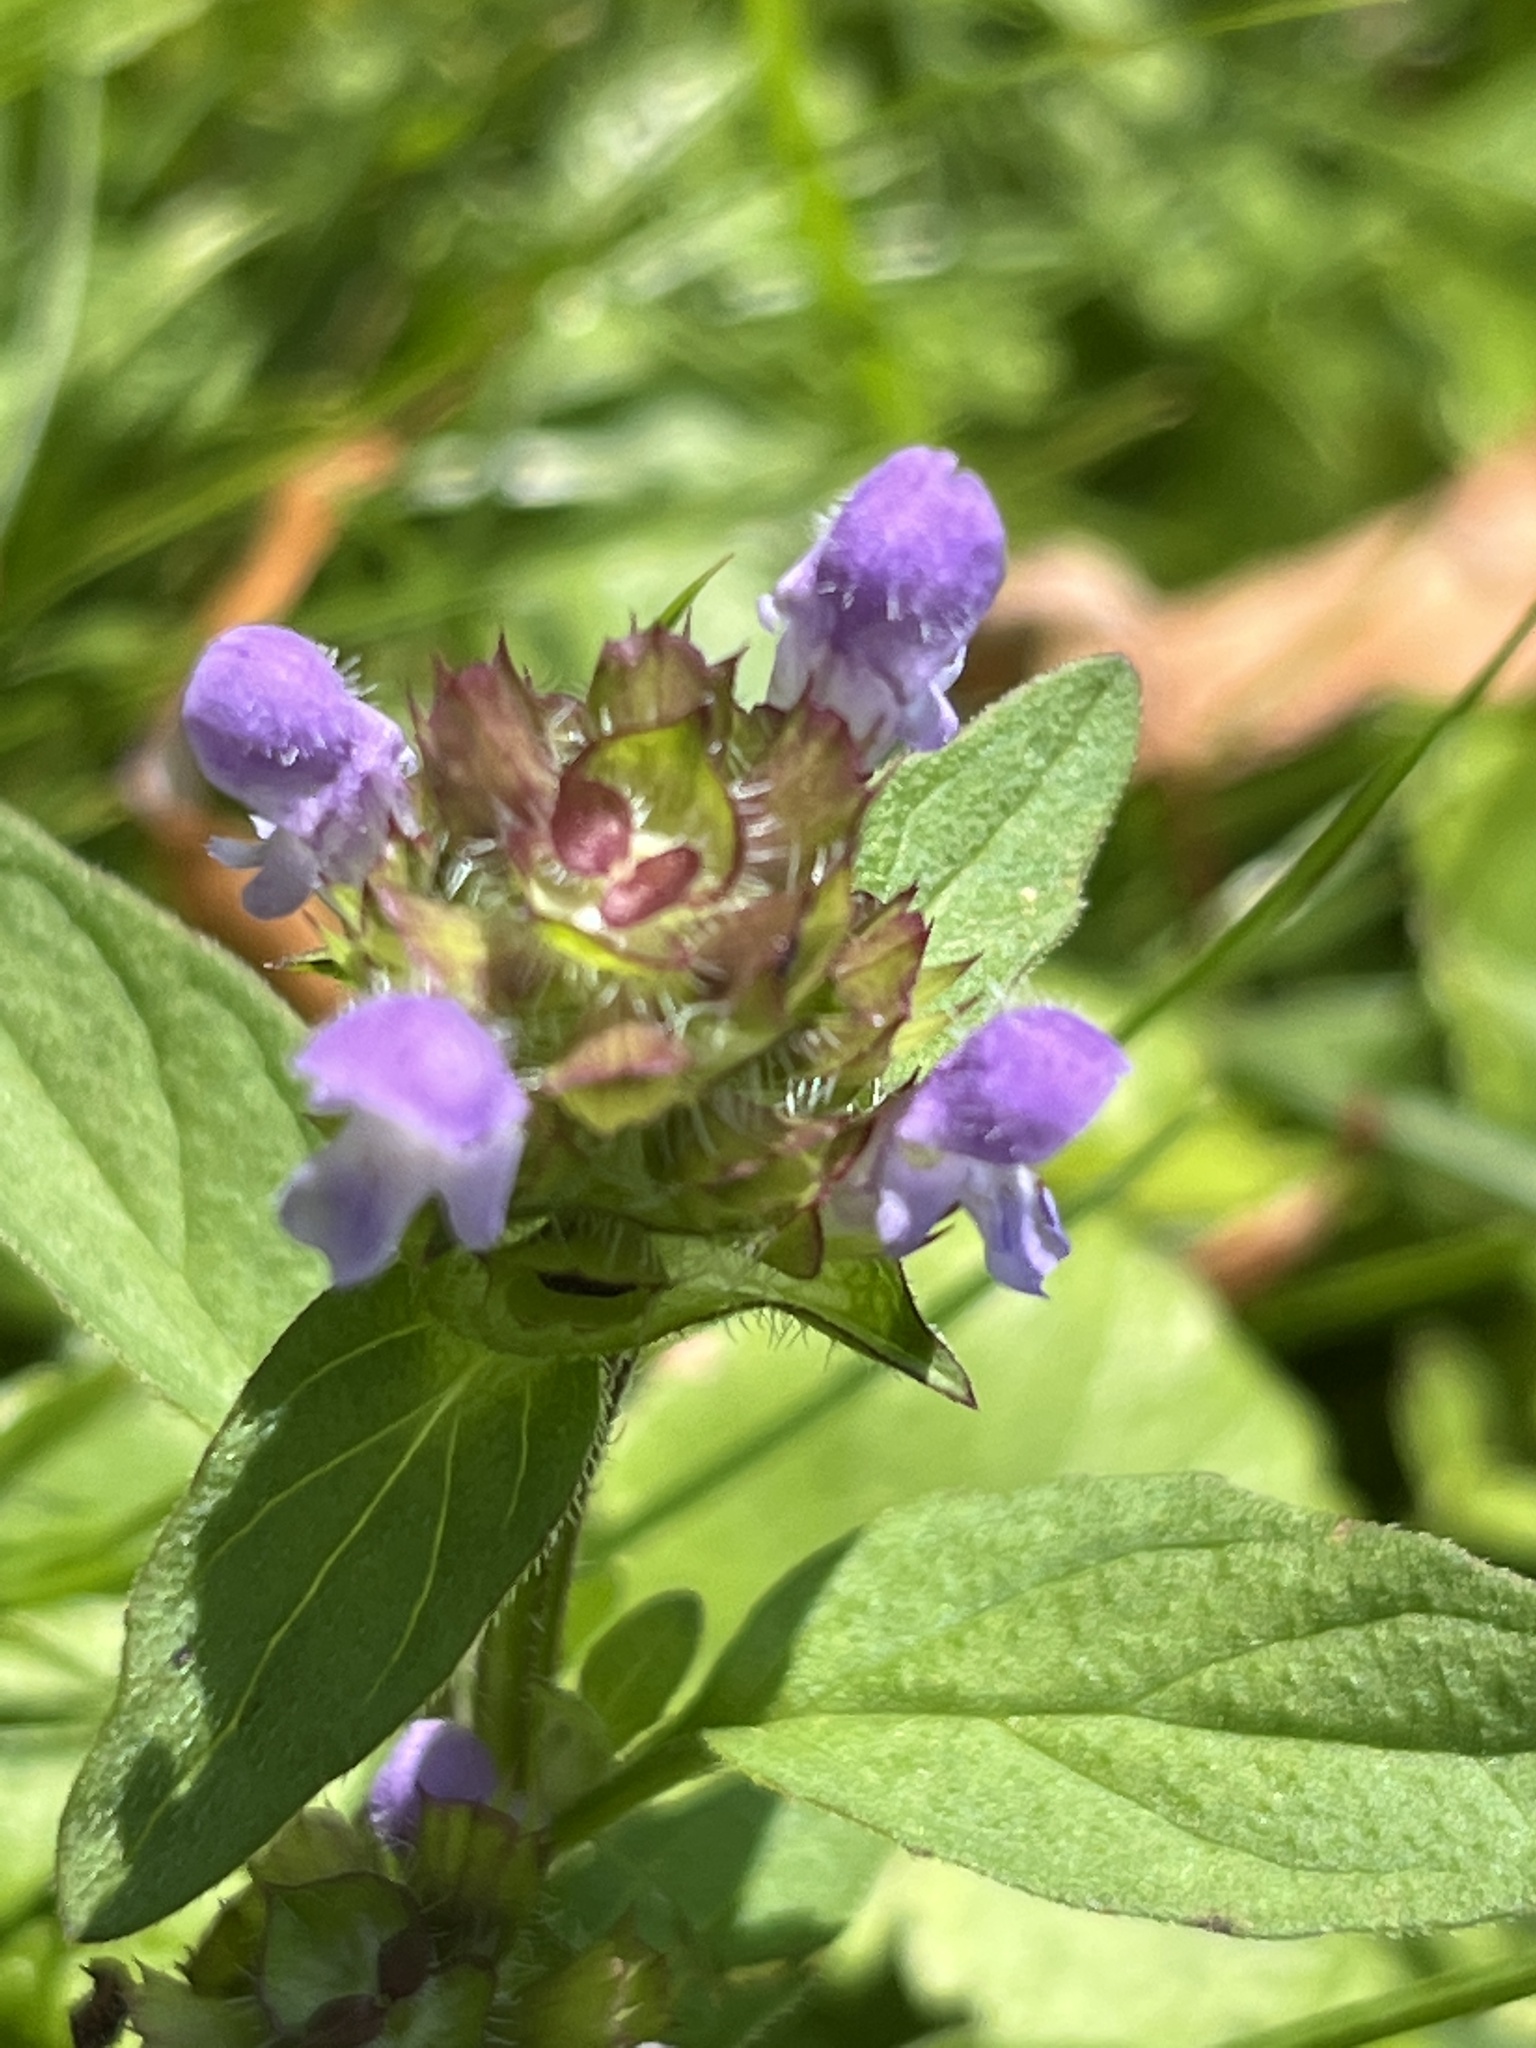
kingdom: Plantae
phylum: Tracheophyta
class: Magnoliopsida
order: Lamiales
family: Lamiaceae
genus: Prunella
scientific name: Prunella vulgaris
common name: Heal-all
